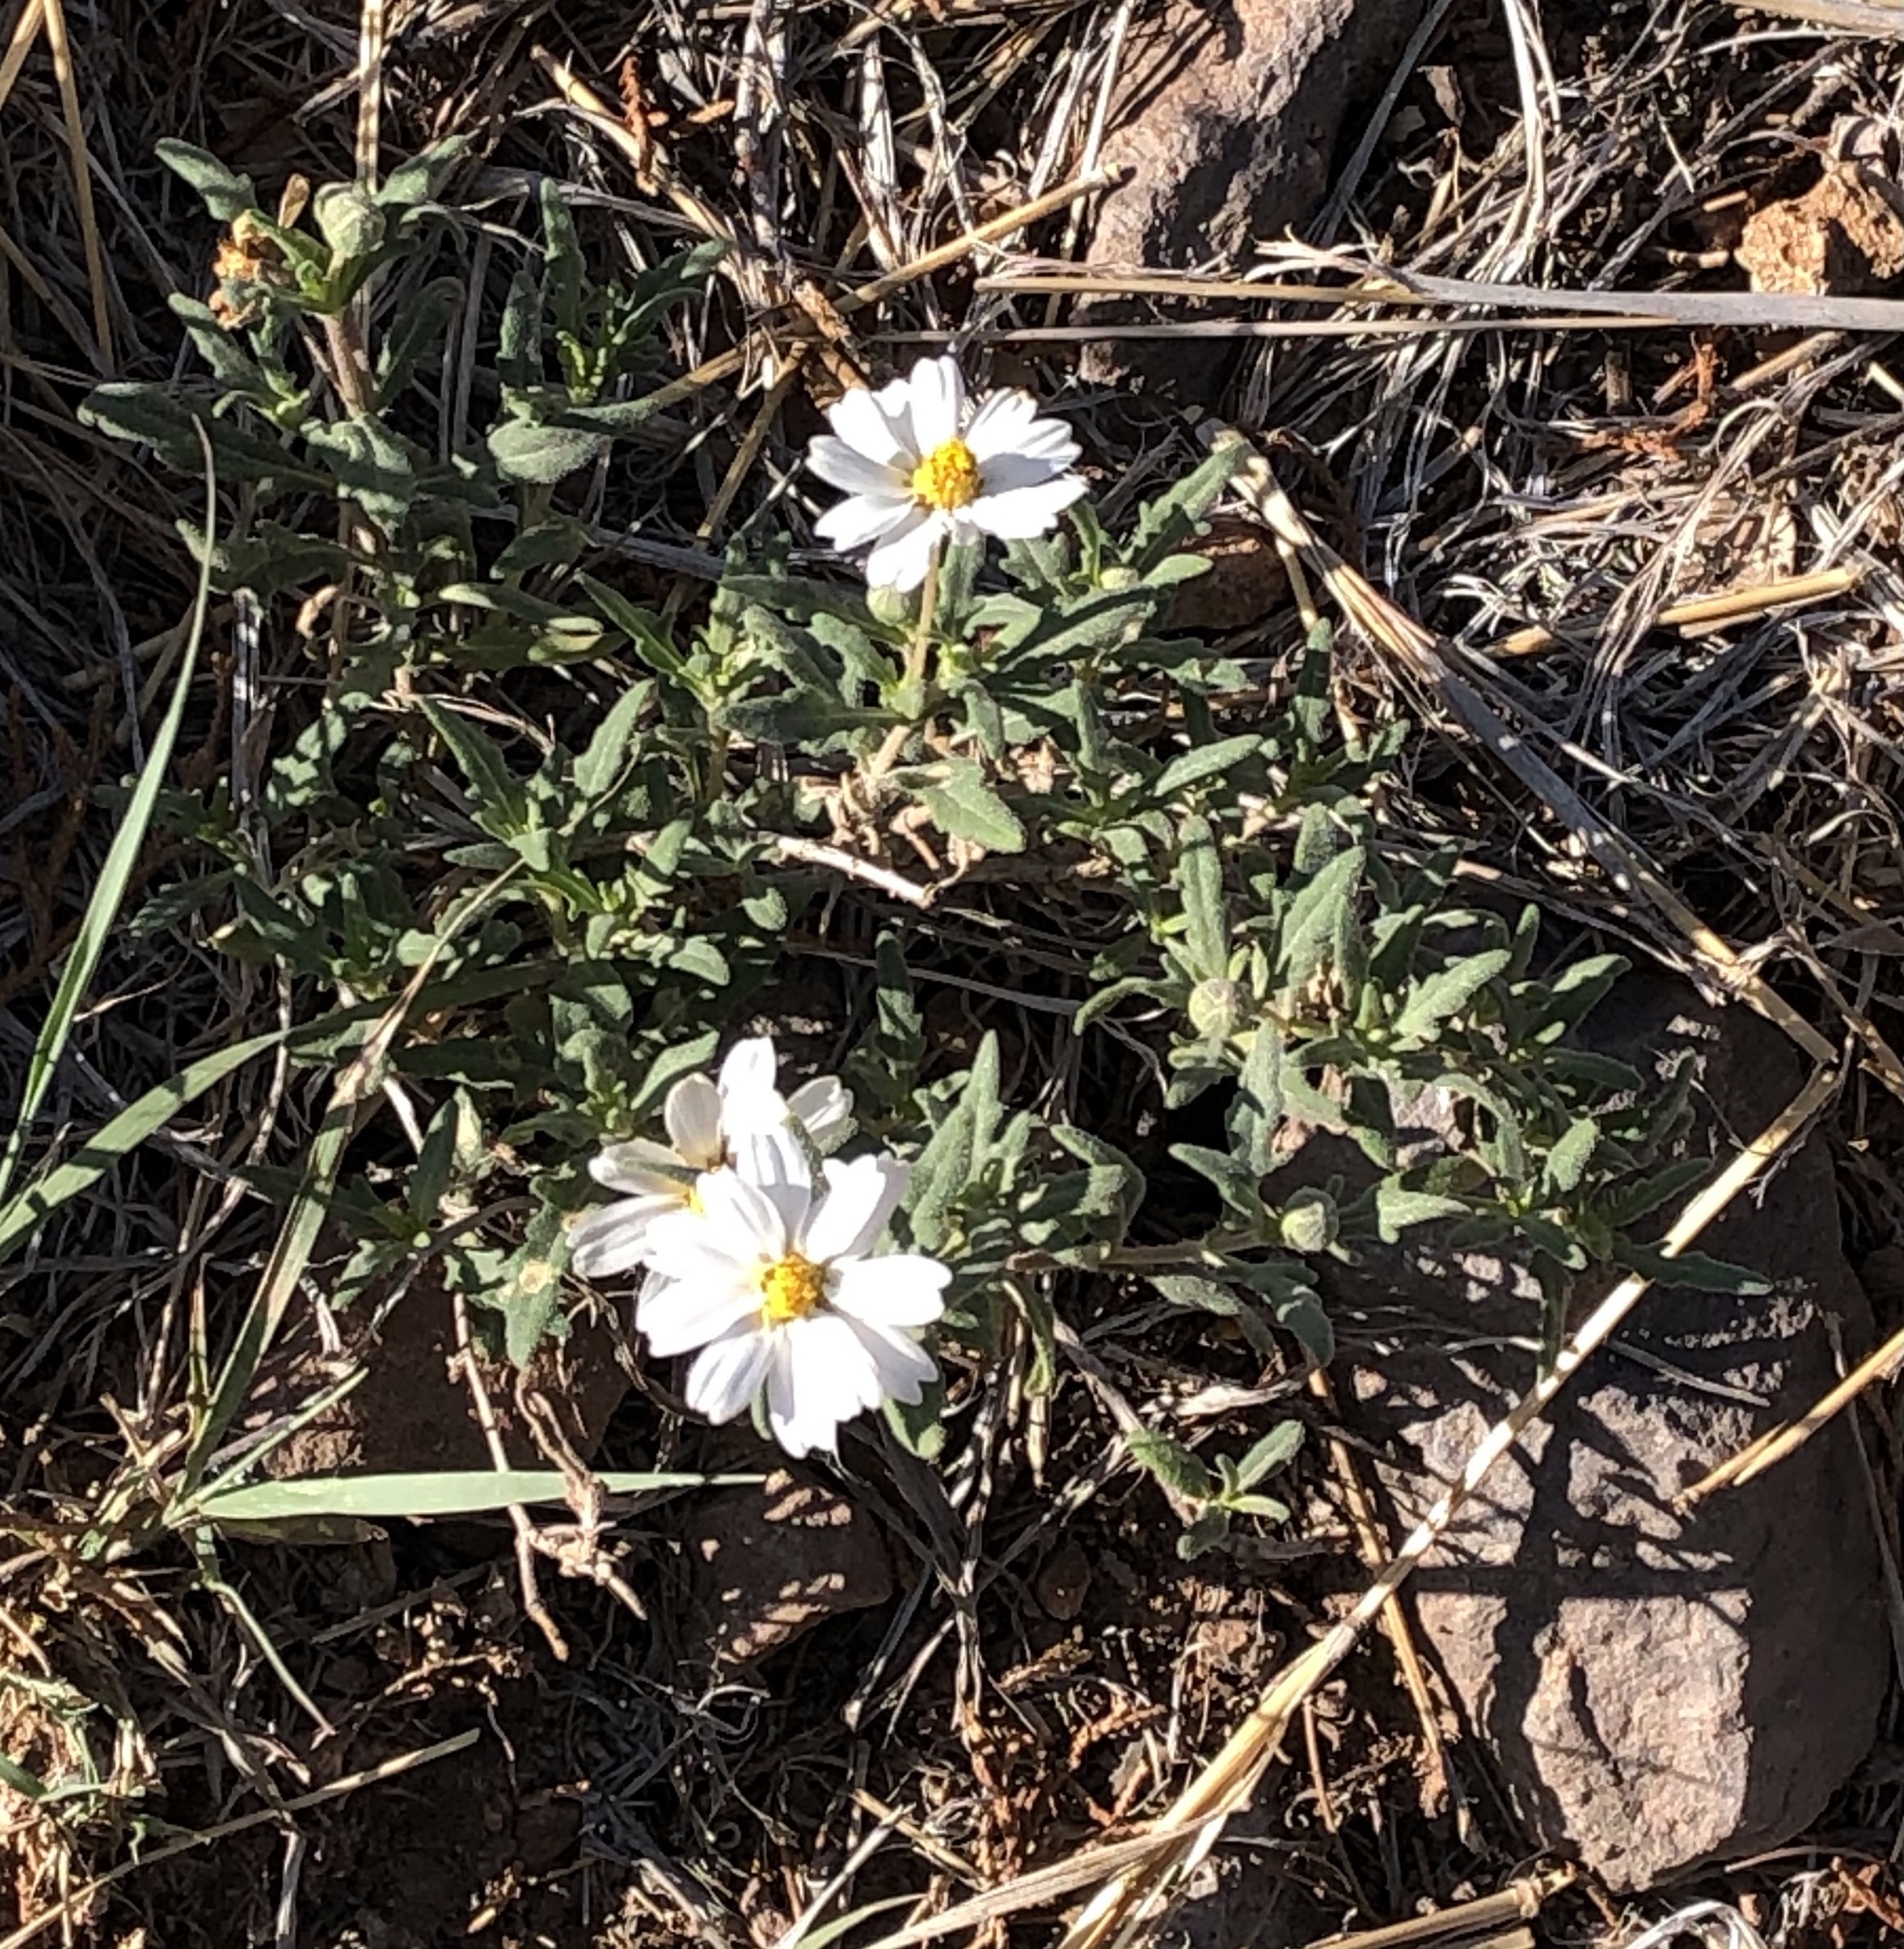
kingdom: Plantae
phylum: Tracheophyta
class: Magnoliopsida
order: Asterales
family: Asteraceae
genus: Melampodium
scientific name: Melampodium leucanthum
